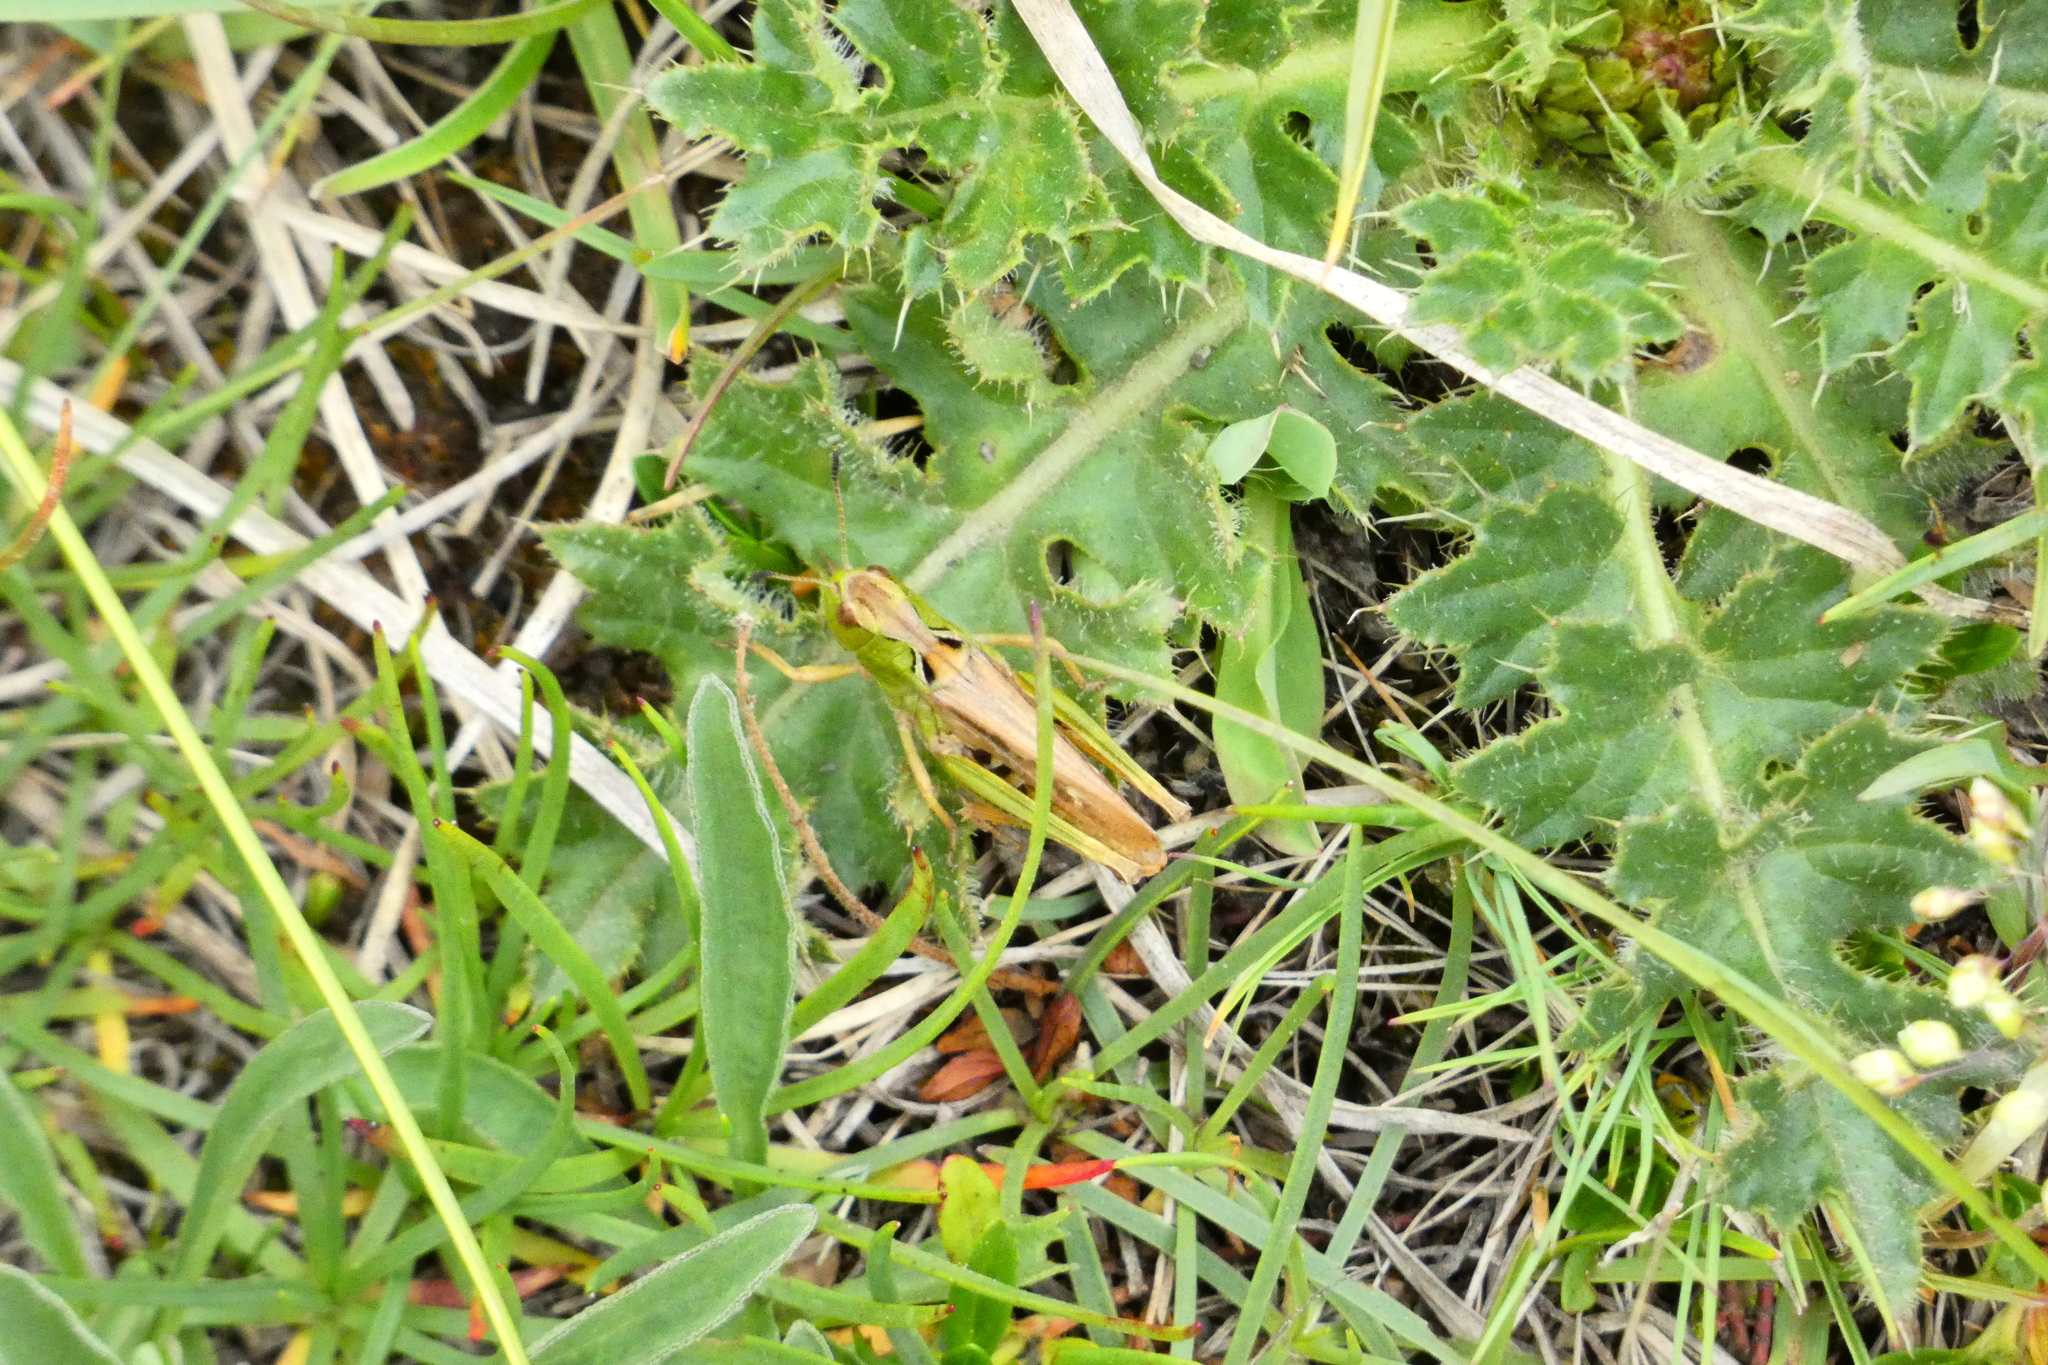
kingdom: Animalia
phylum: Arthropoda
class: Insecta
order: Orthoptera
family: Acrididae
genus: Gomphocerus
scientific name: Gomphocerus sibiricus
